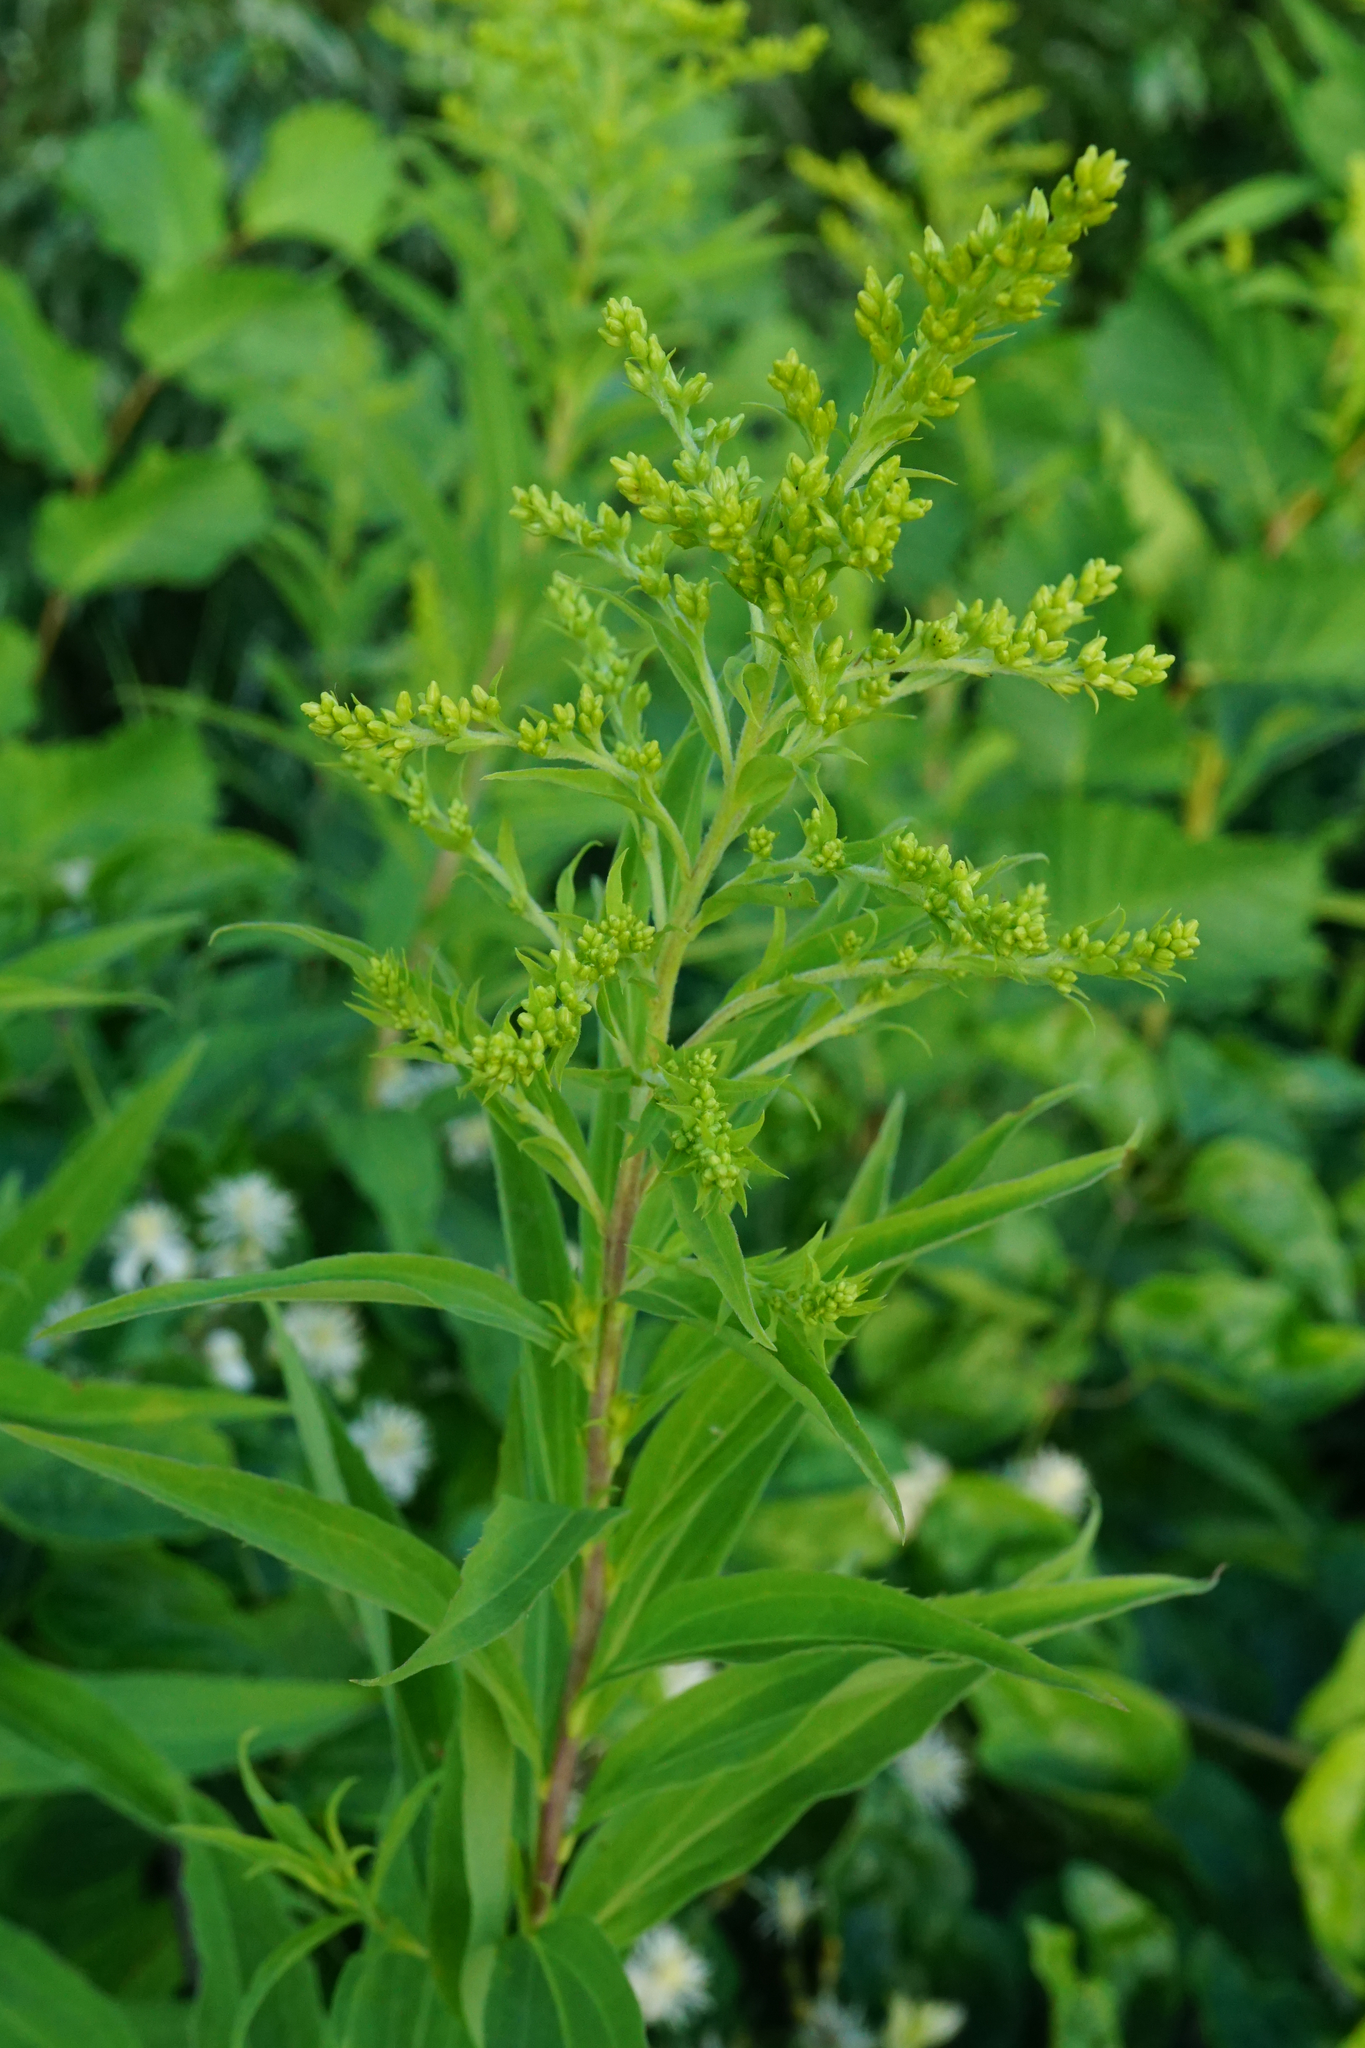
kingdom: Plantae
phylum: Tracheophyta
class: Magnoliopsida
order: Asterales
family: Asteraceae
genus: Solidago
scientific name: Solidago gigantea
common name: Giant goldenrod
